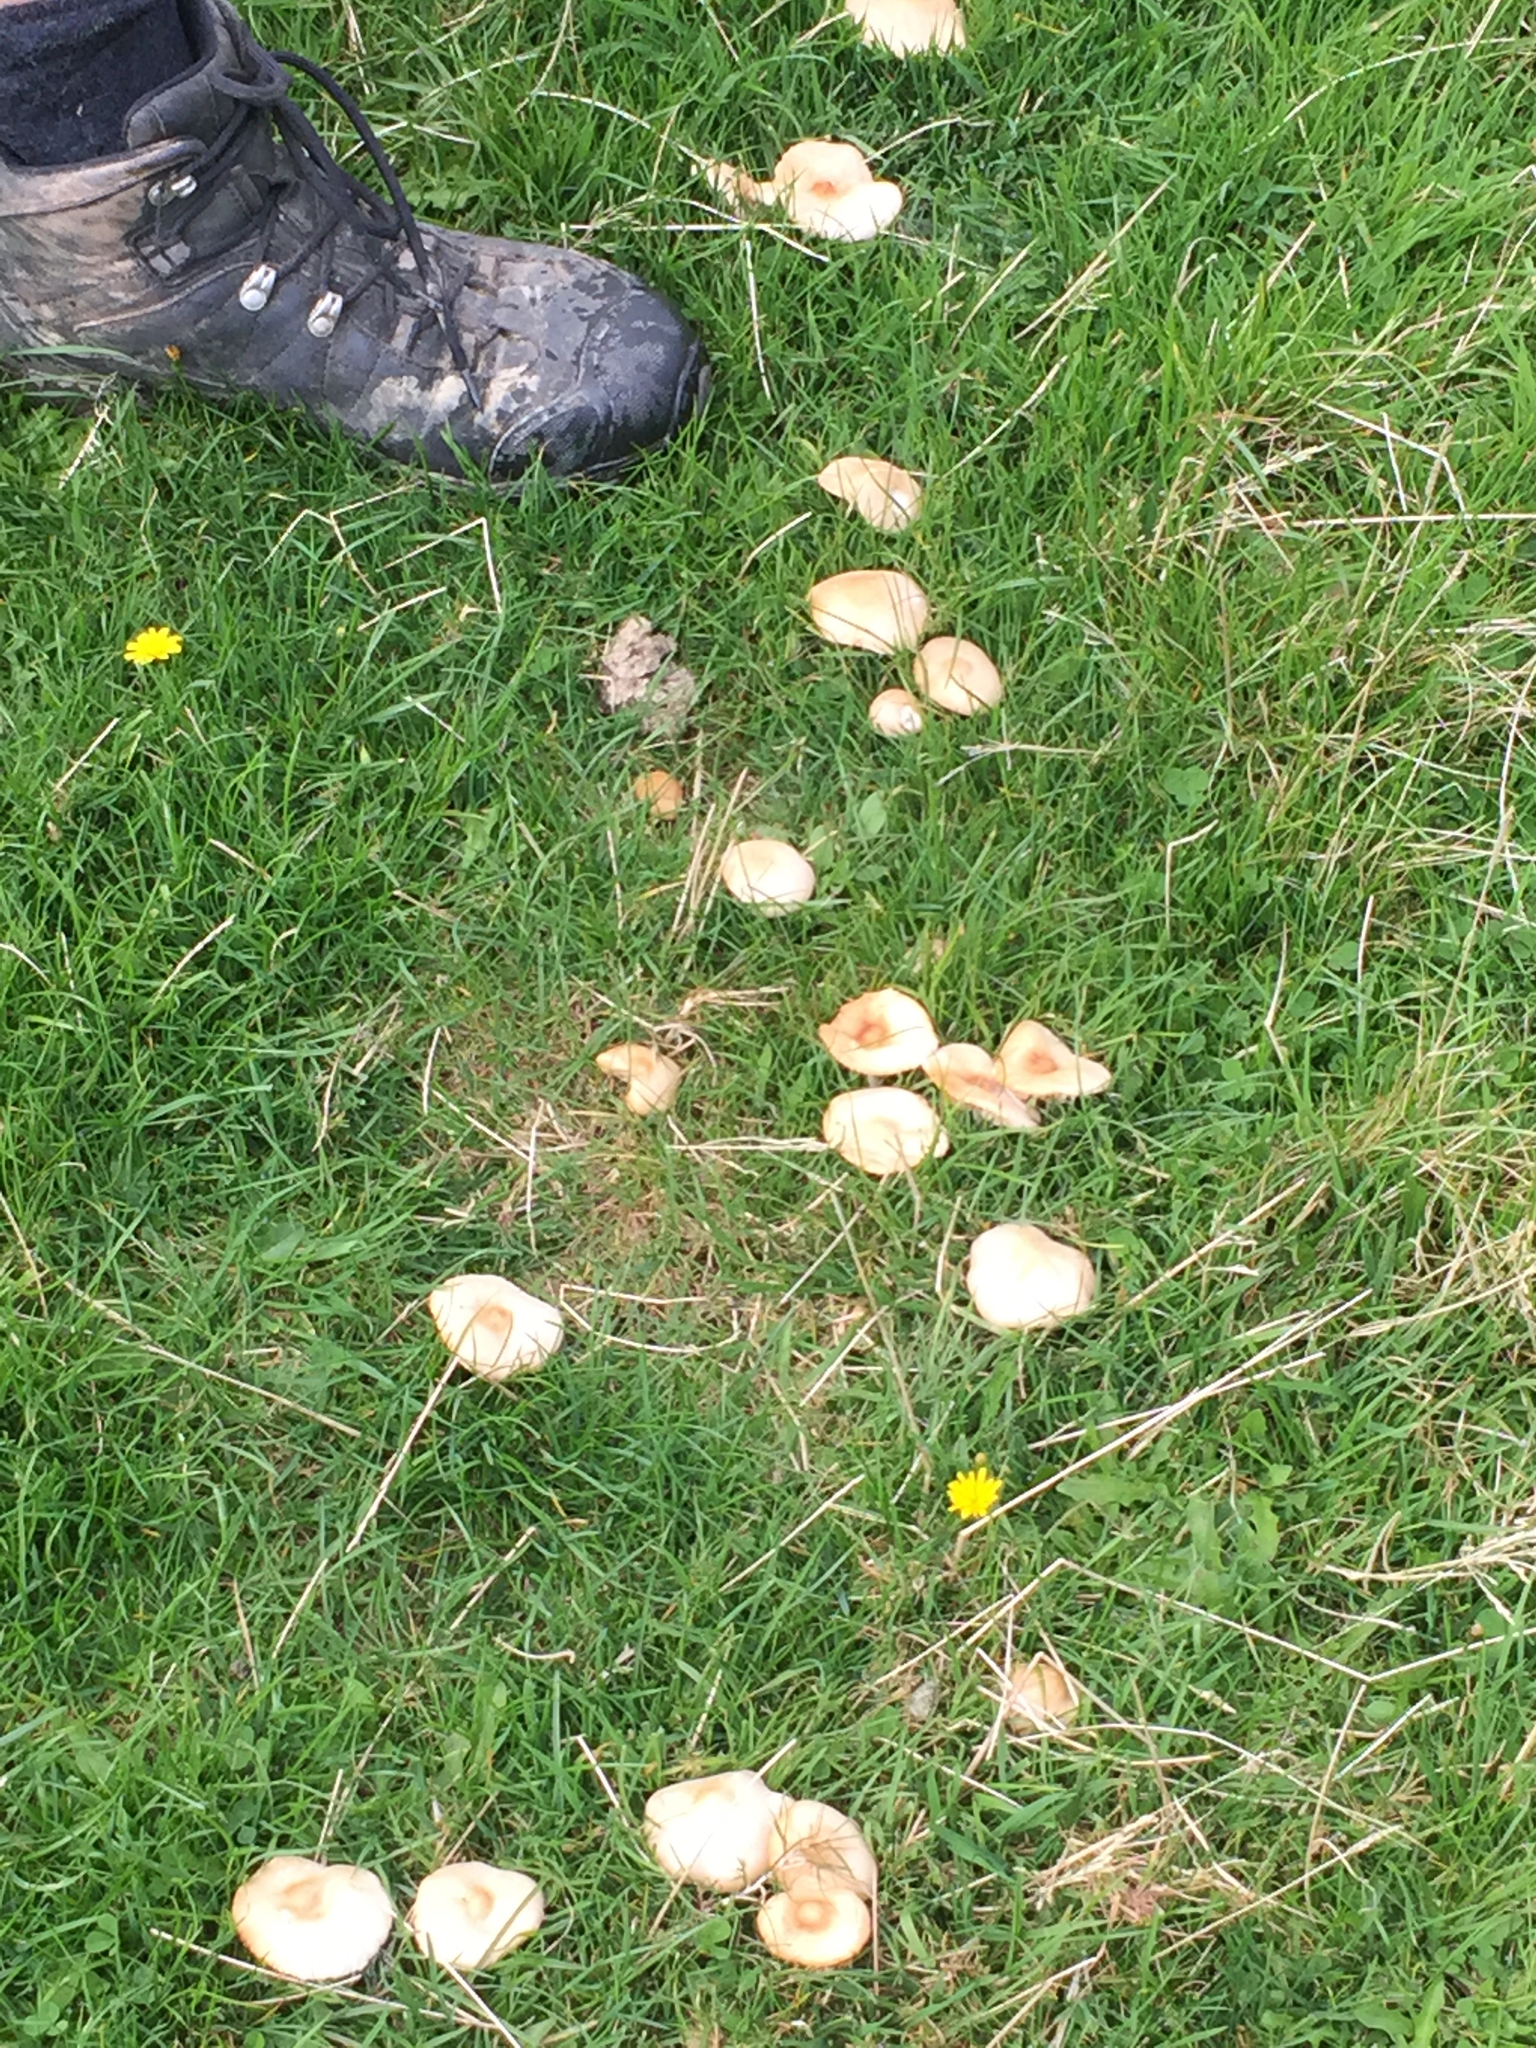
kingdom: Fungi
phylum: Basidiomycota
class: Agaricomycetes
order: Agaricales
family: Marasmiaceae
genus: Marasmius
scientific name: Marasmius oreades
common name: Fairy ring champignon
